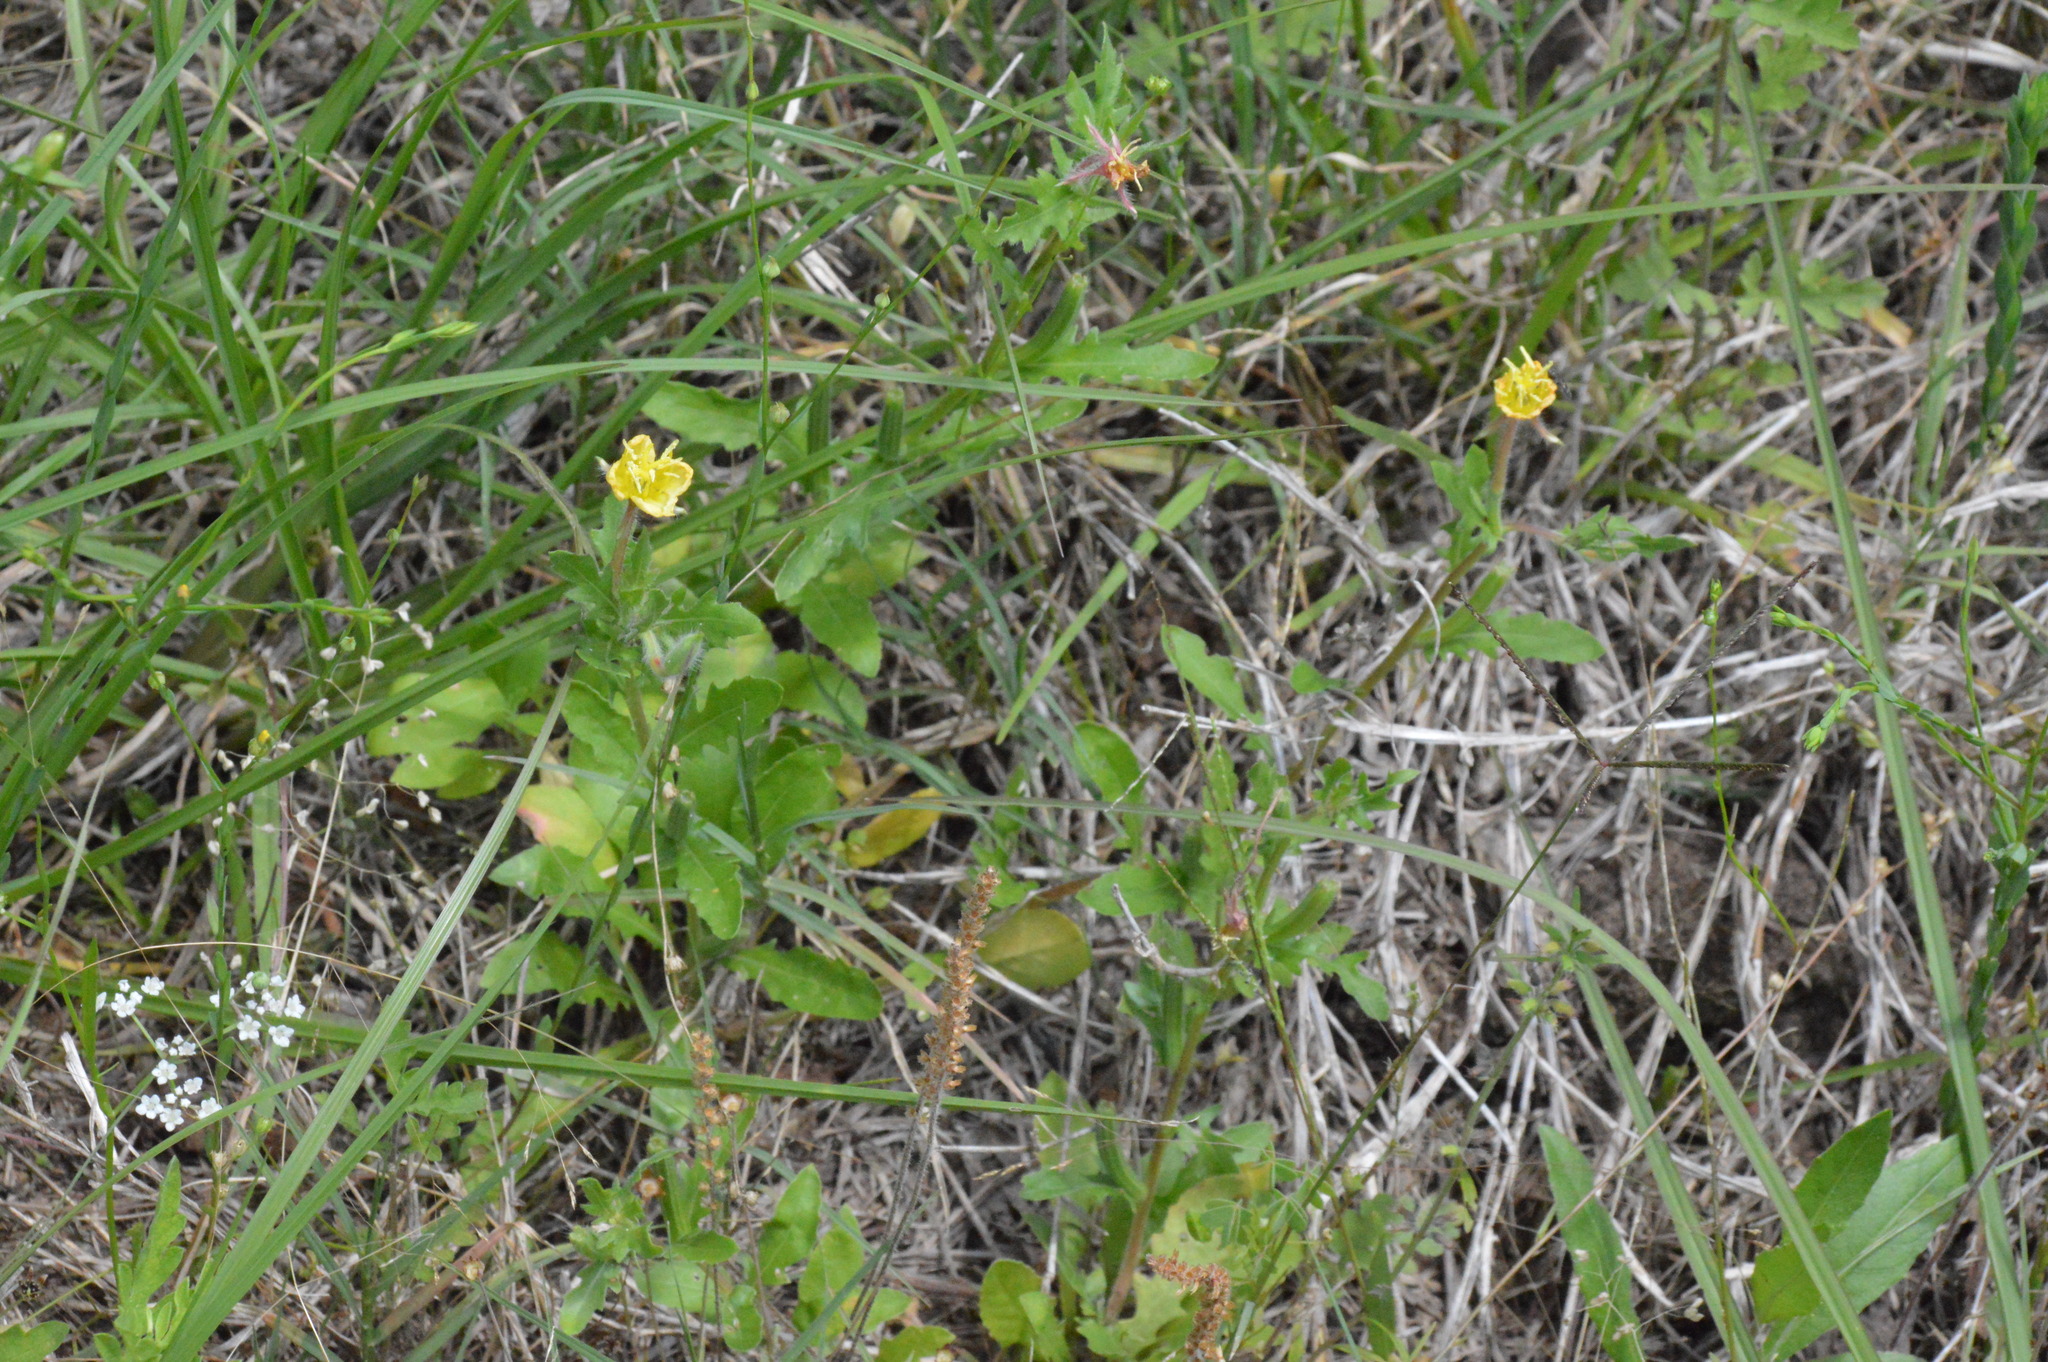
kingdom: Plantae
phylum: Tracheophyta
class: Magnoliopsida
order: Myrtales
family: Onagraceae
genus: Oenothera
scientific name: Oenothera laciniata
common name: Cut-leaved evening-primrose
